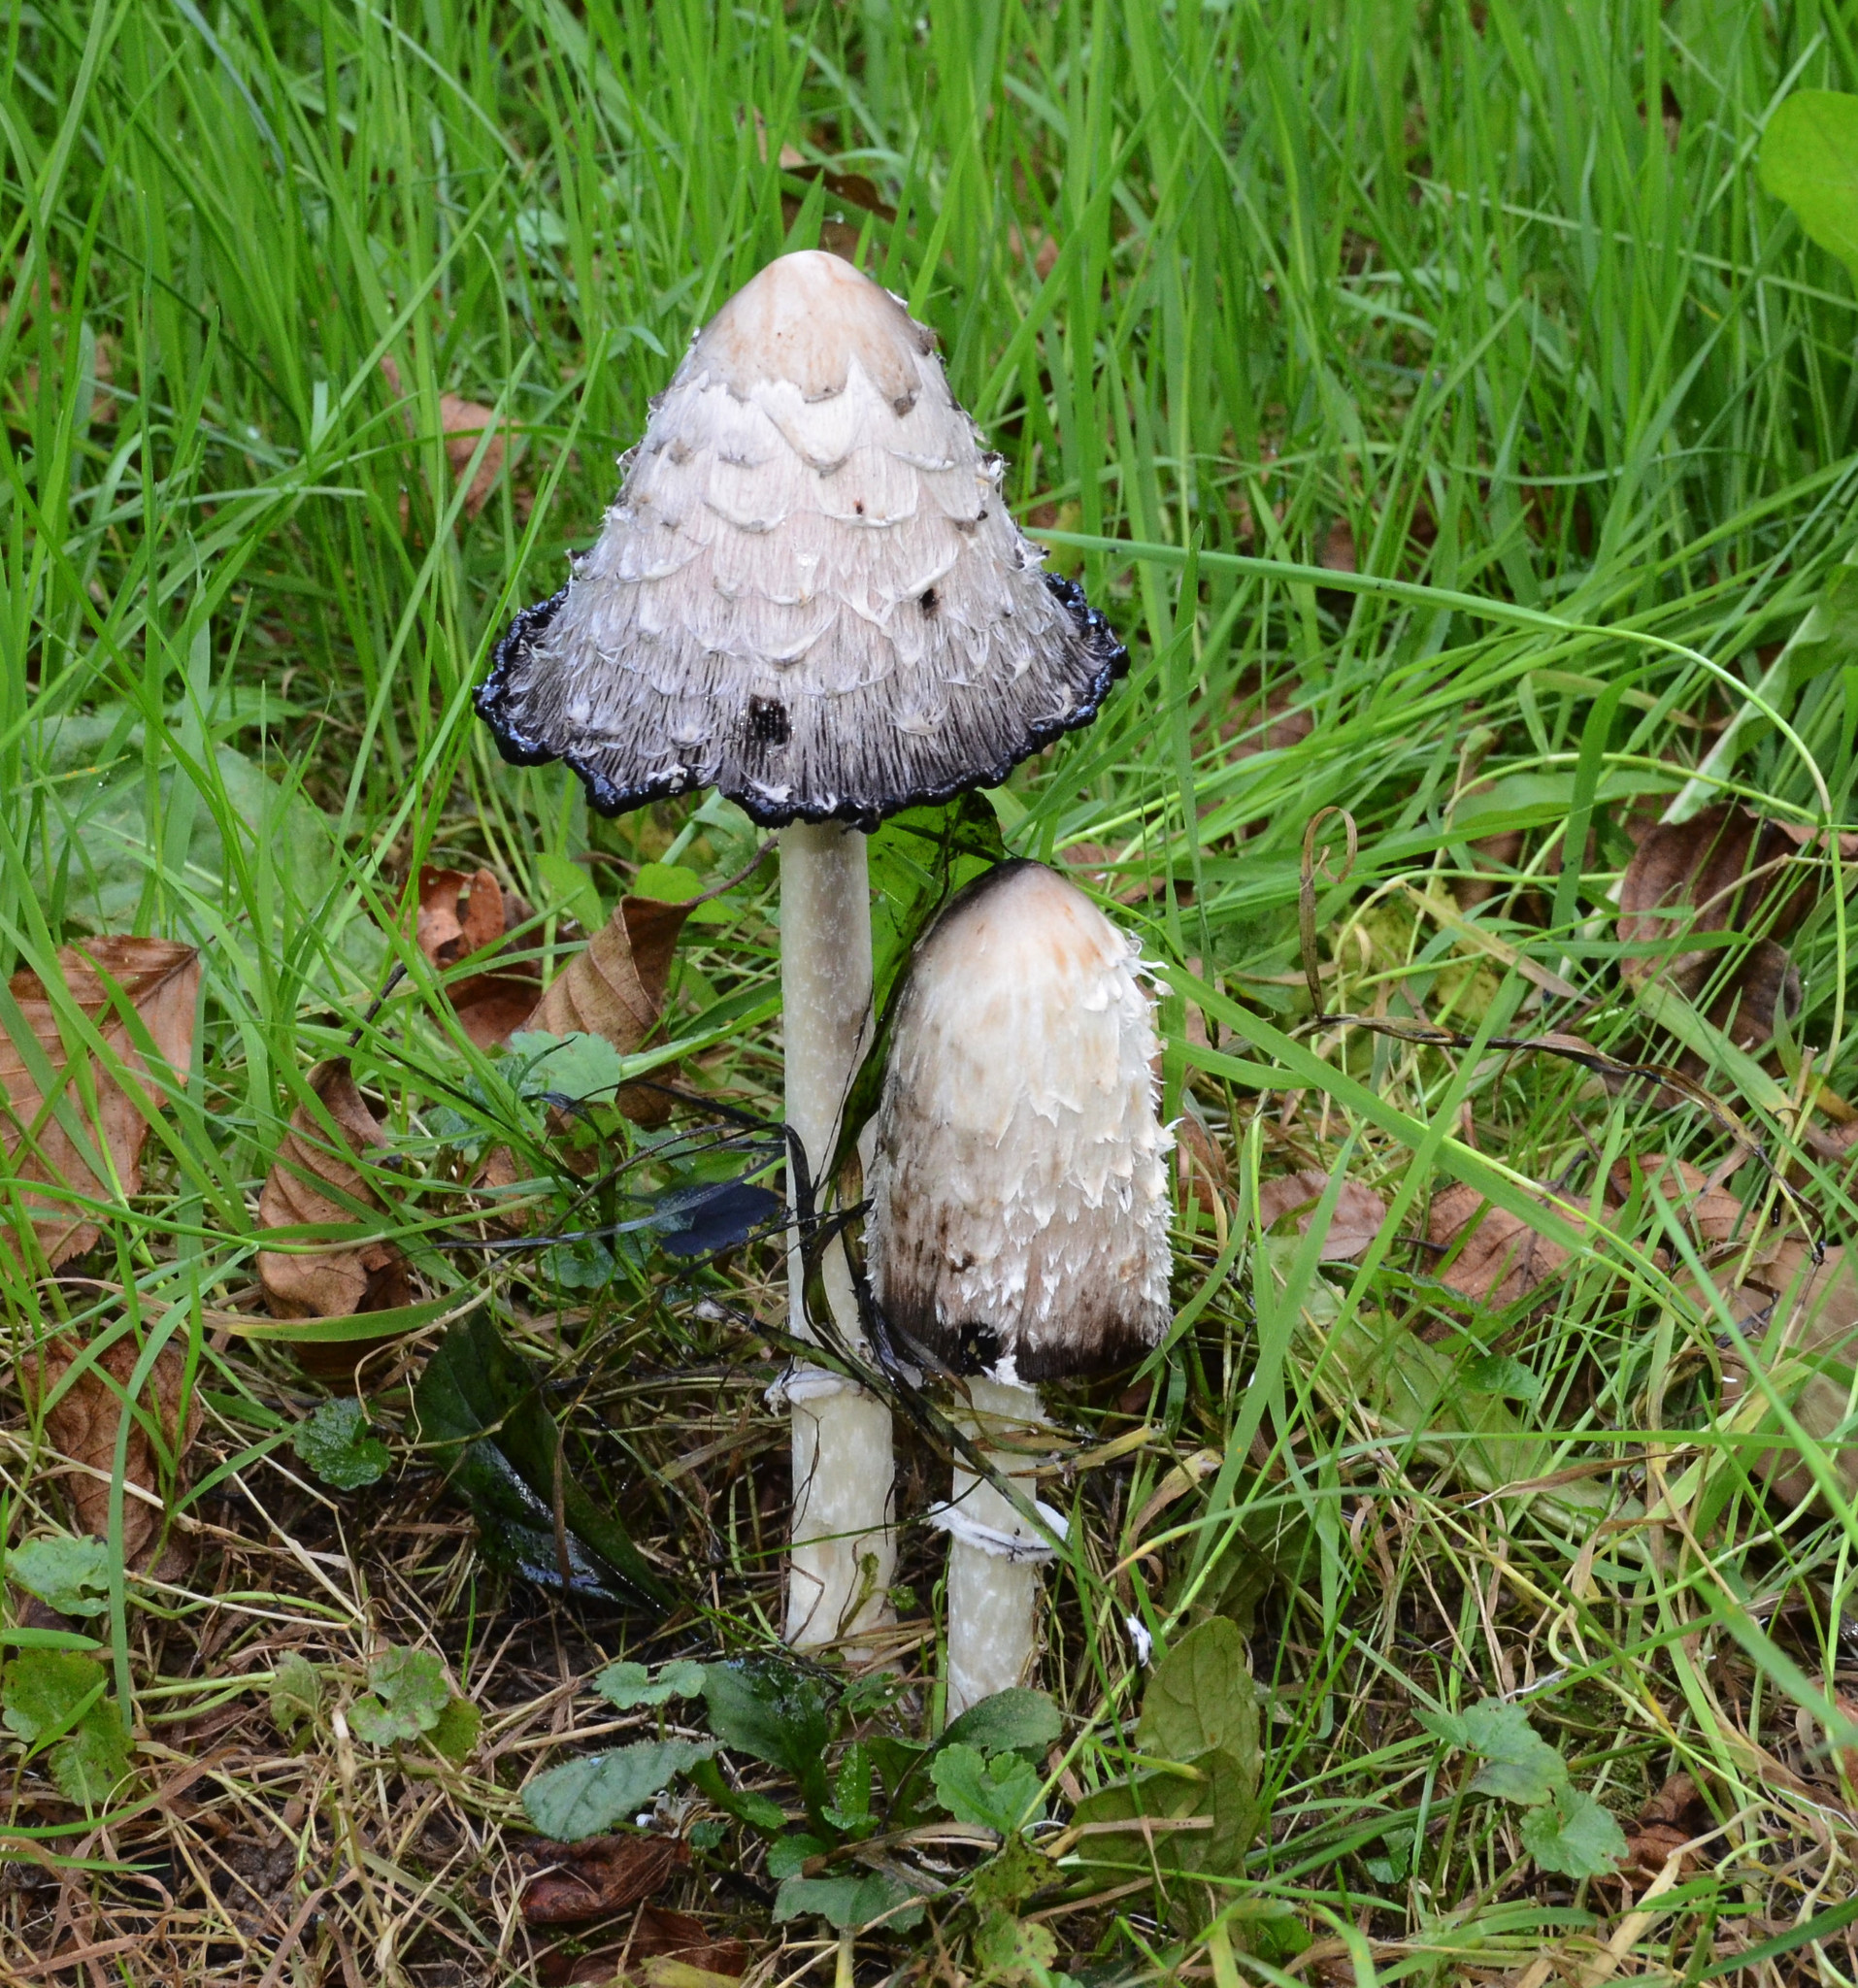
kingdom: Fungi
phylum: Basidiomycota
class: Agaricomycetes
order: Agaricales
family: Agaricaceae
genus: Coprinus
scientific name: Coprinus comatus
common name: Lawyer's wig
